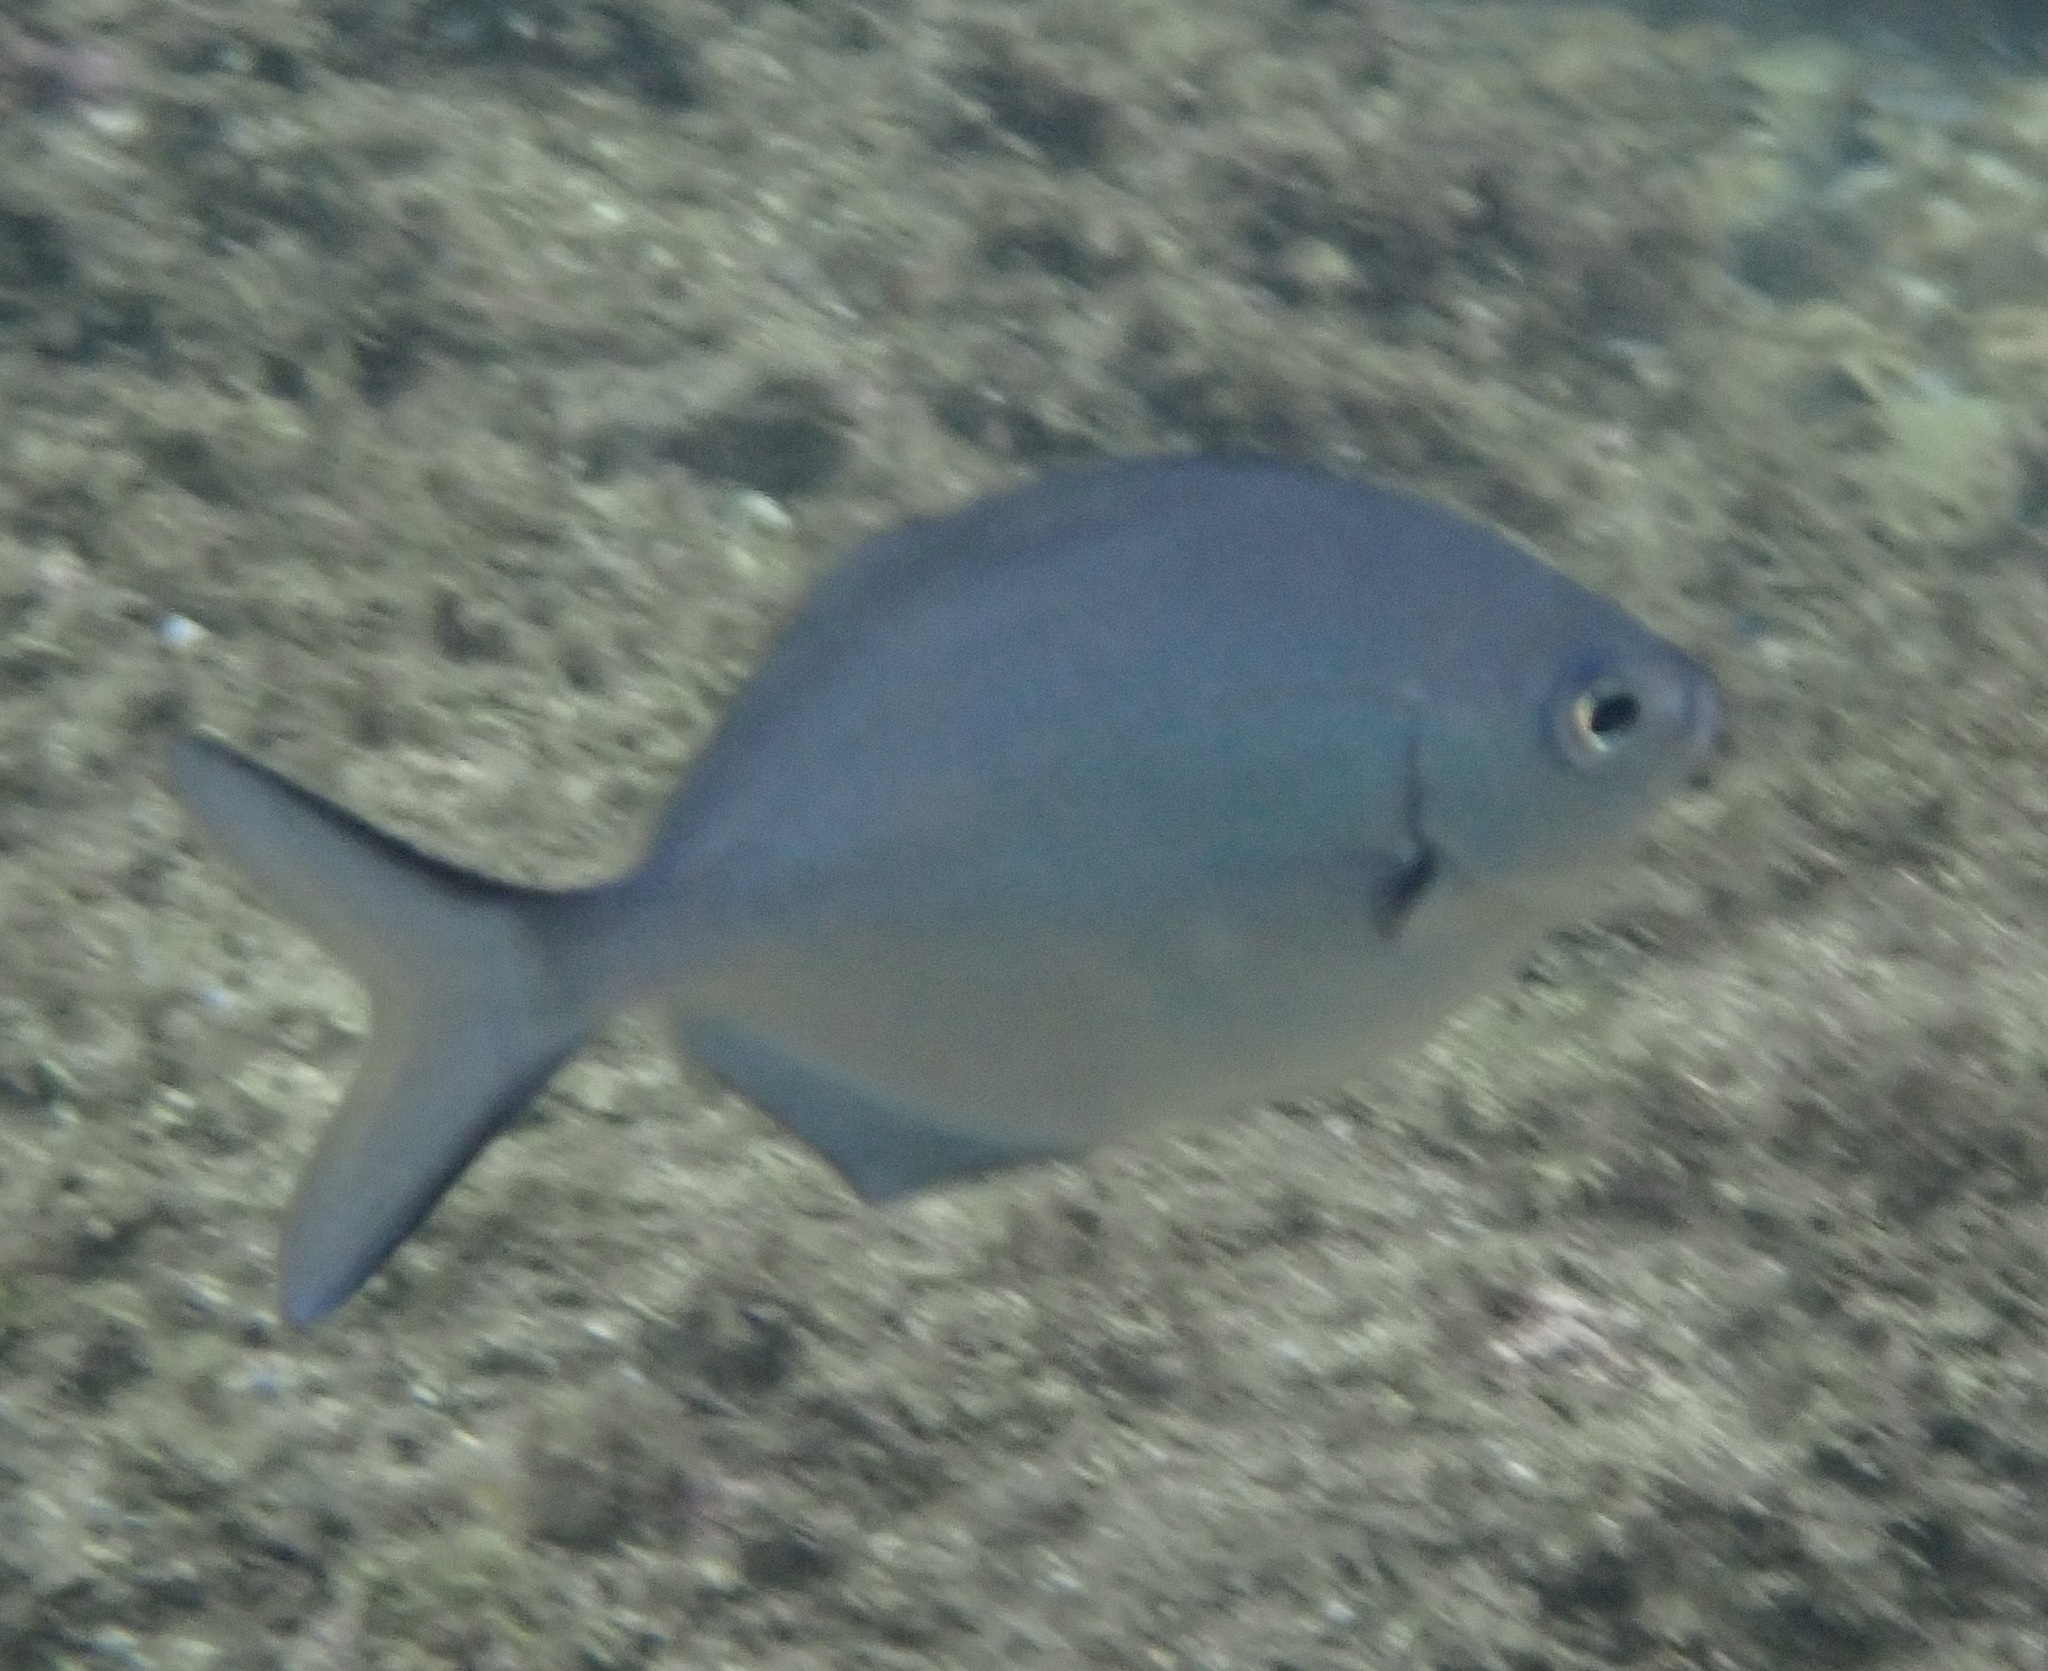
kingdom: Animalia
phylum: Chordata
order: Perciformes
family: Kyphosidae
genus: Scorpis
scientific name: Scorpis lineolata
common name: Sweep
